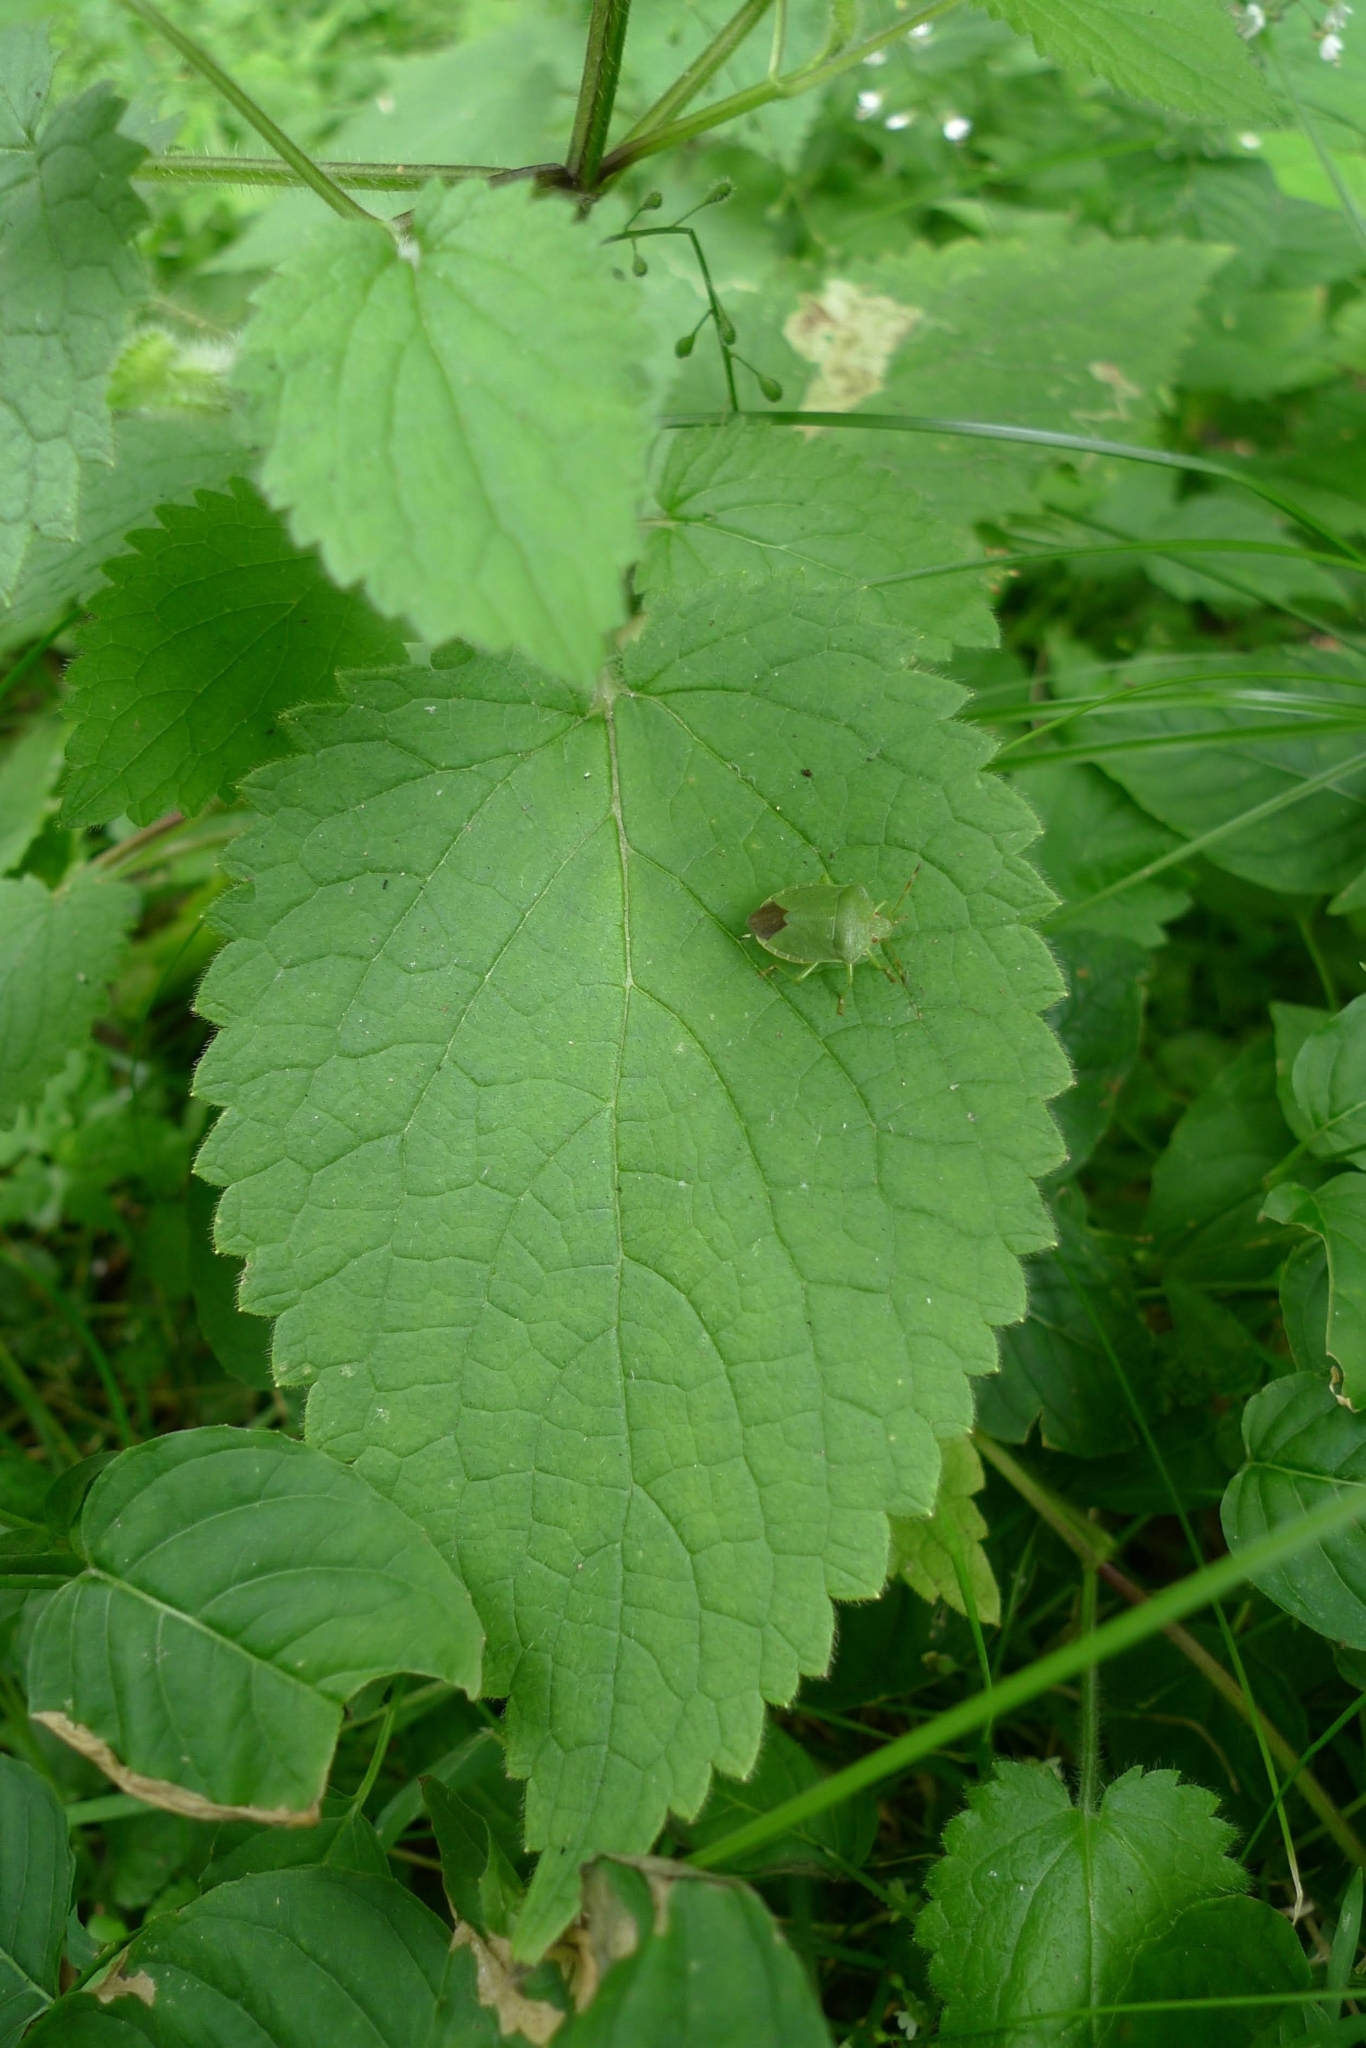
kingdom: Plantae
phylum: Tracheophyta
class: Magnoliopsida
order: Lamiales
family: Lamiaceae
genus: Stachys
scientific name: Stachys sylvatica
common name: Hedge woundwort
